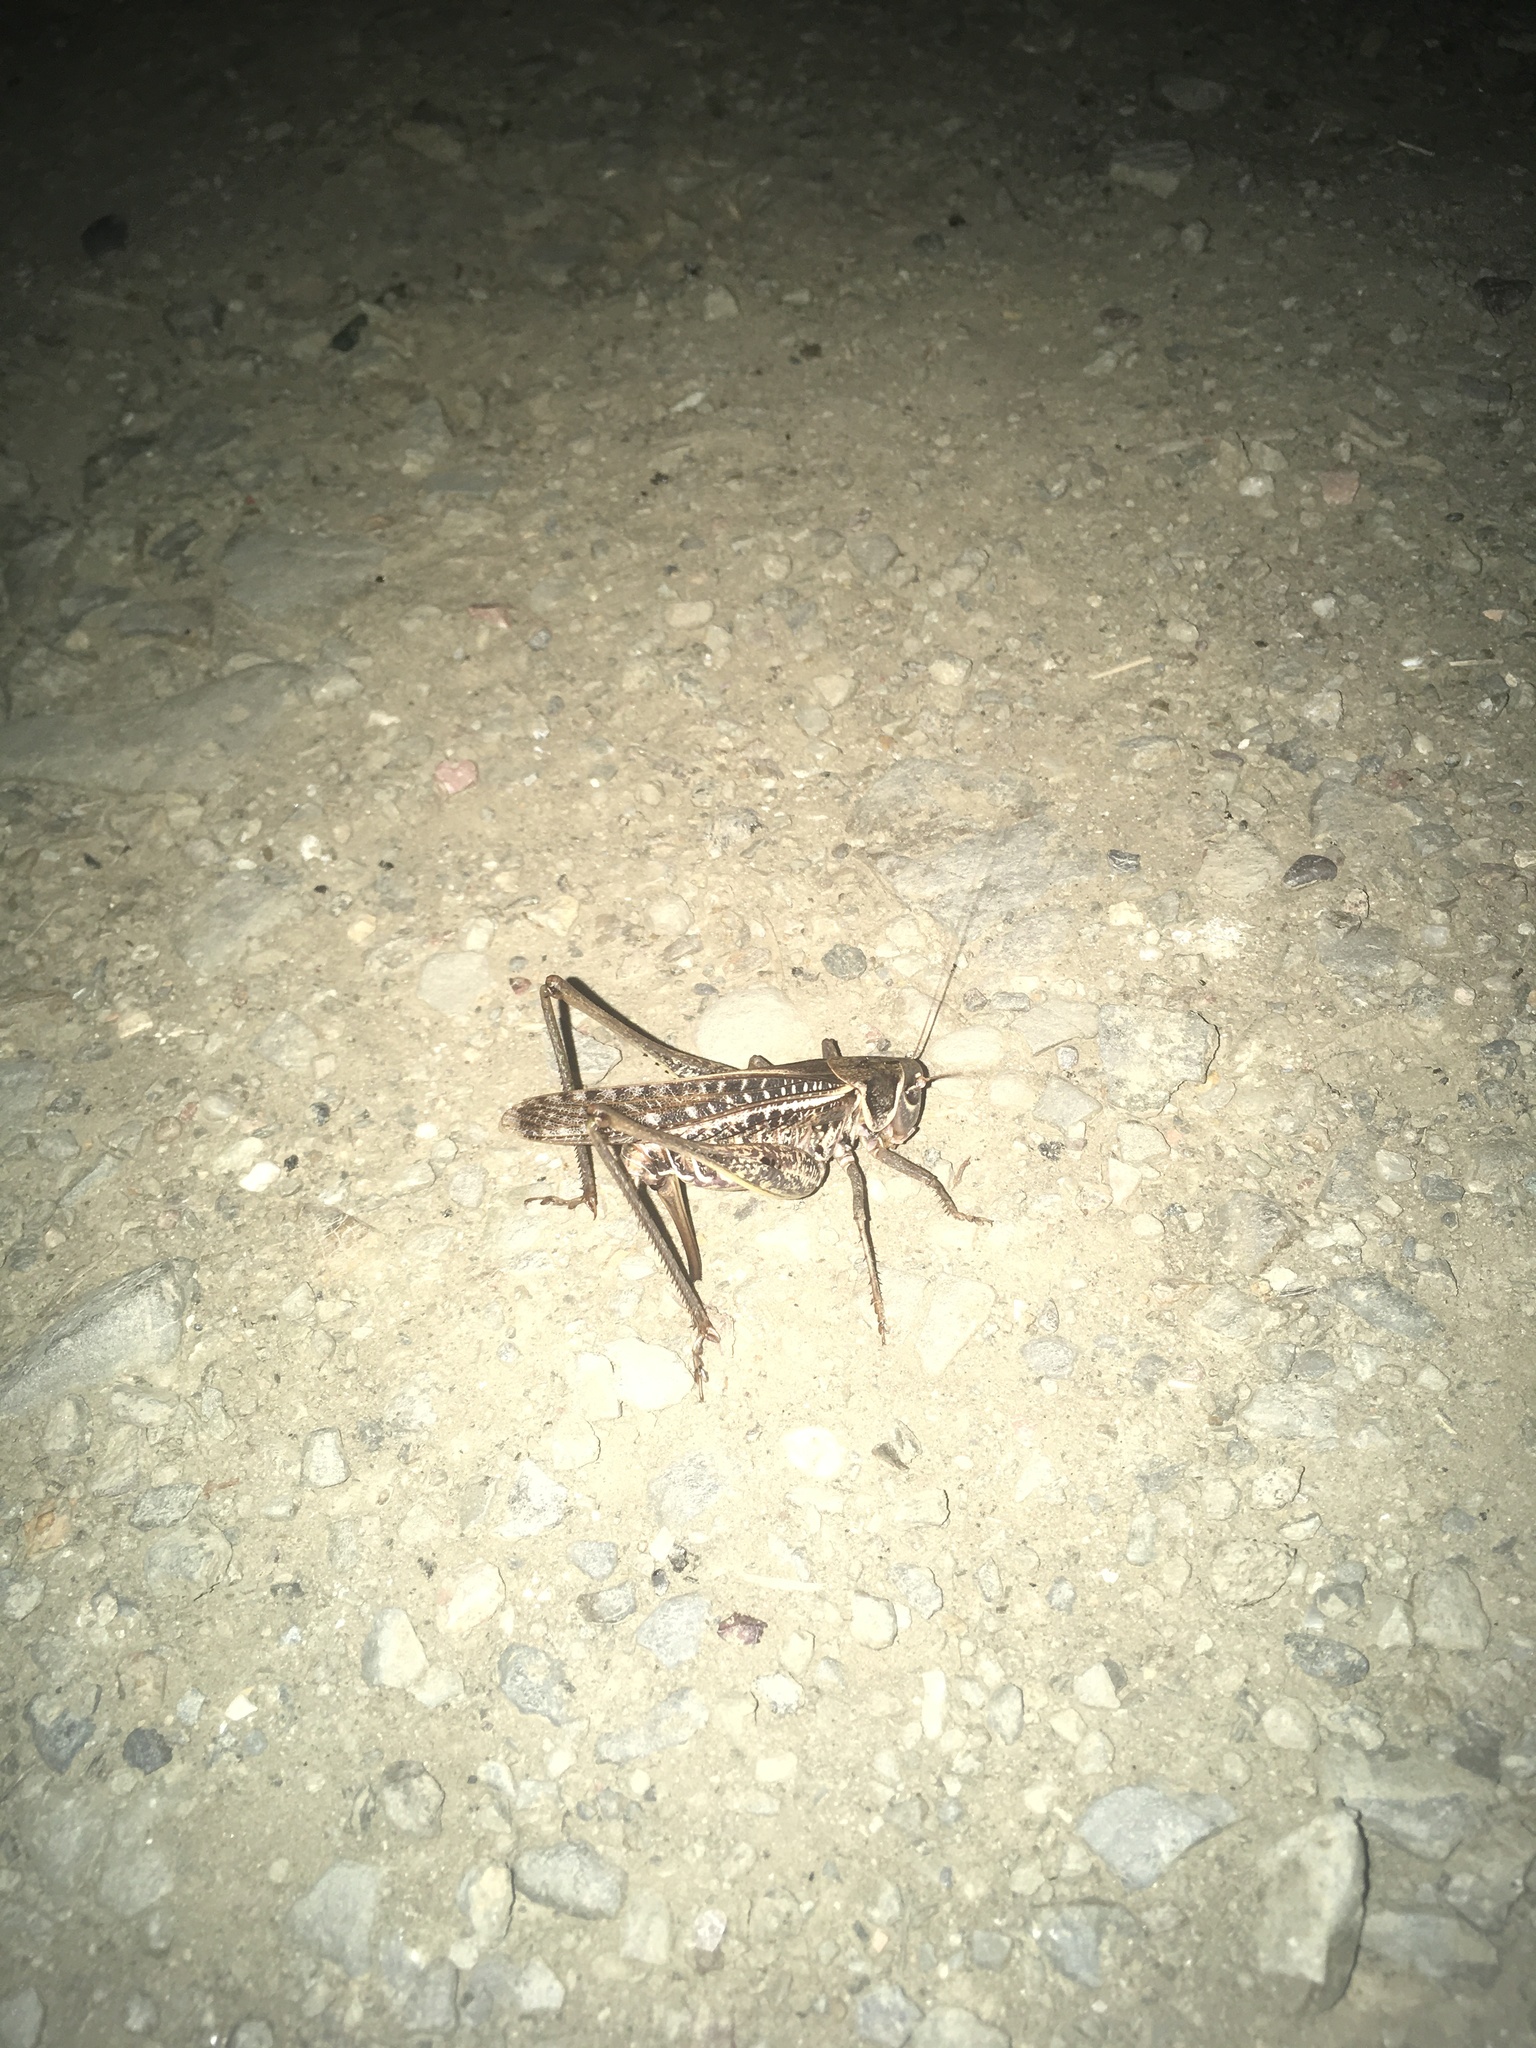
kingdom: Animalia
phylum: Arthropoda
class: Insecta
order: Orthoptera
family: Tettigoniidae
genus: Decticus
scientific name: Decticus albifrons
